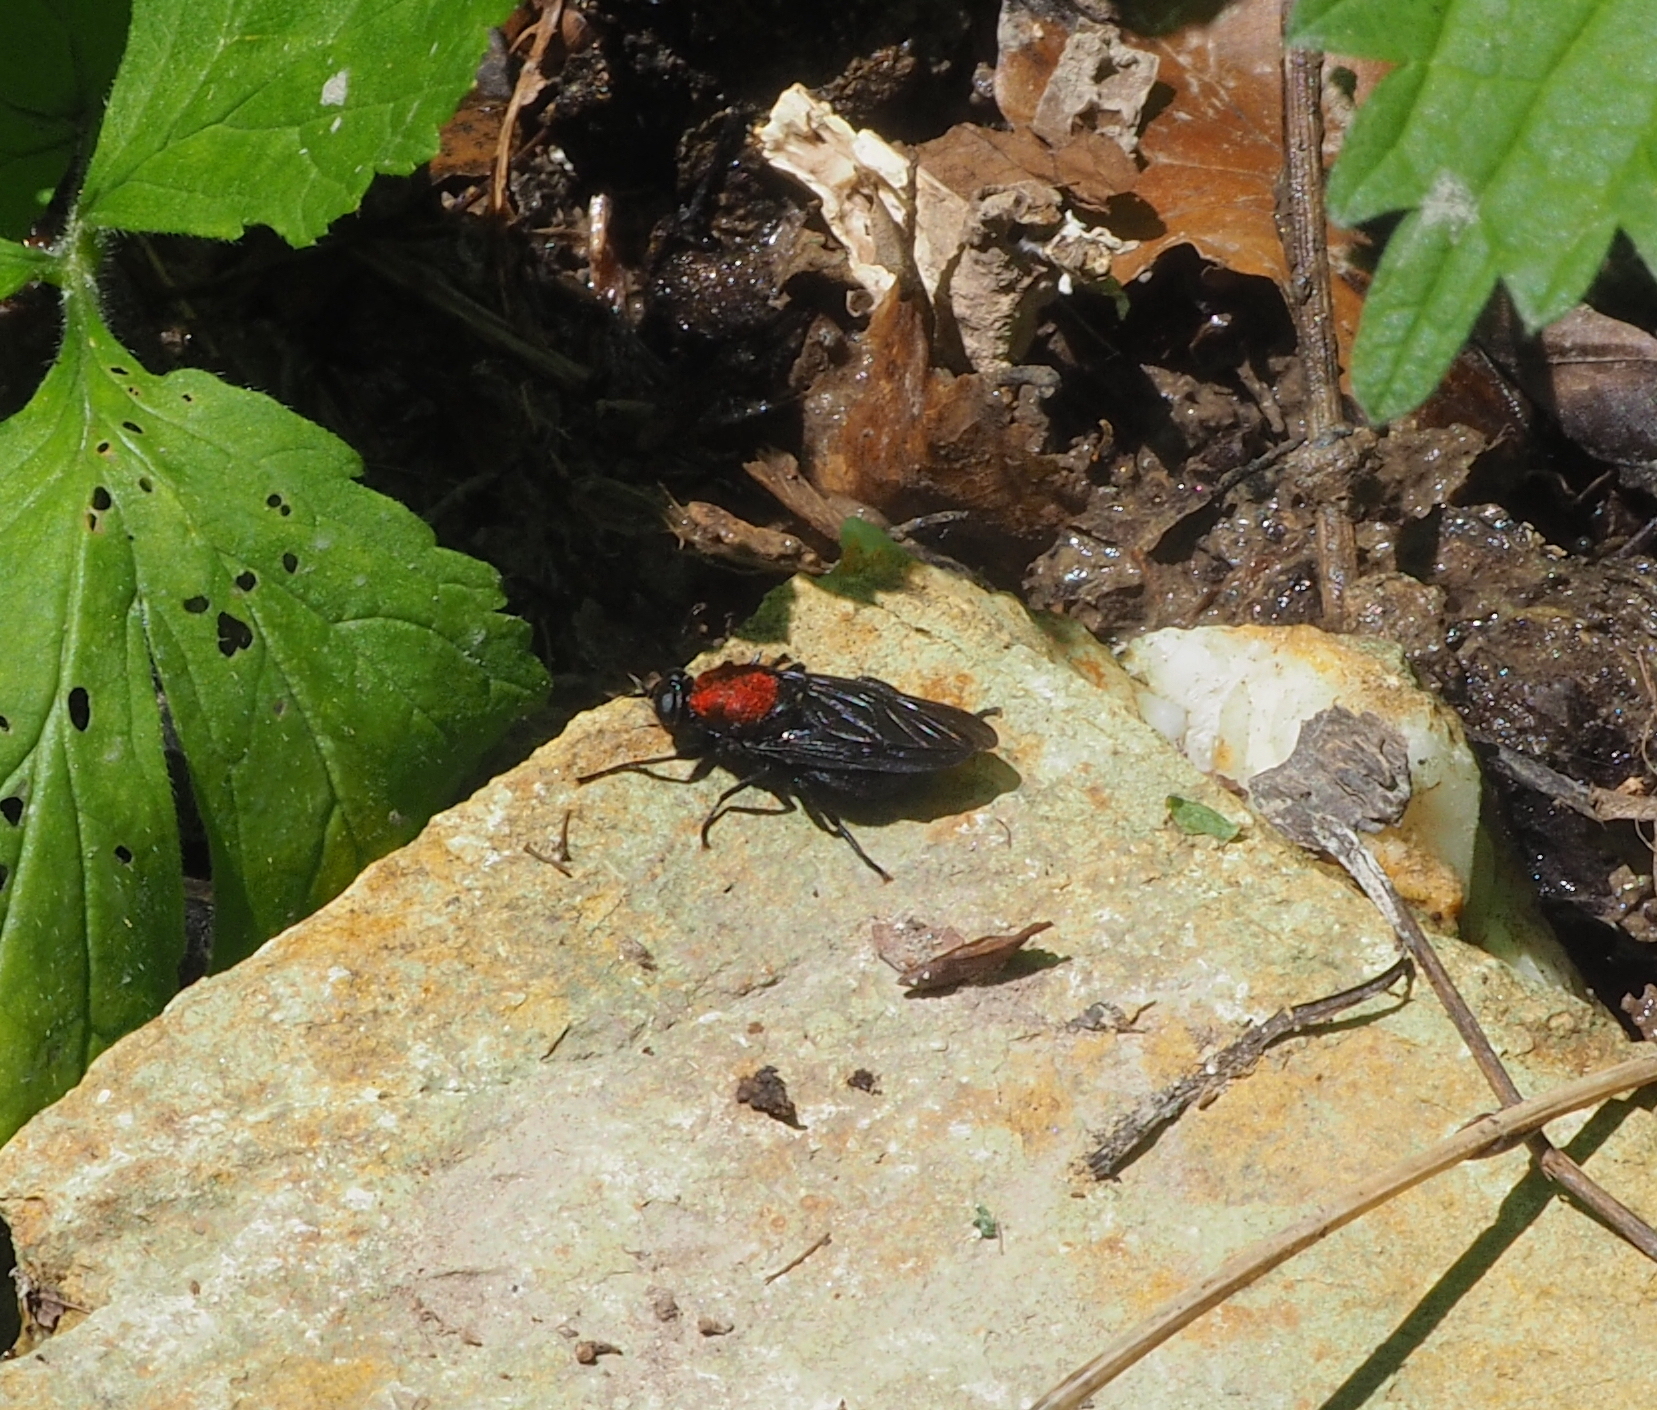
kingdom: Animalia
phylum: Arthropoda
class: Insecta
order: Diptera
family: Stratiomyidae
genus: Clitellaria
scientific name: Clitellaria ephippium
